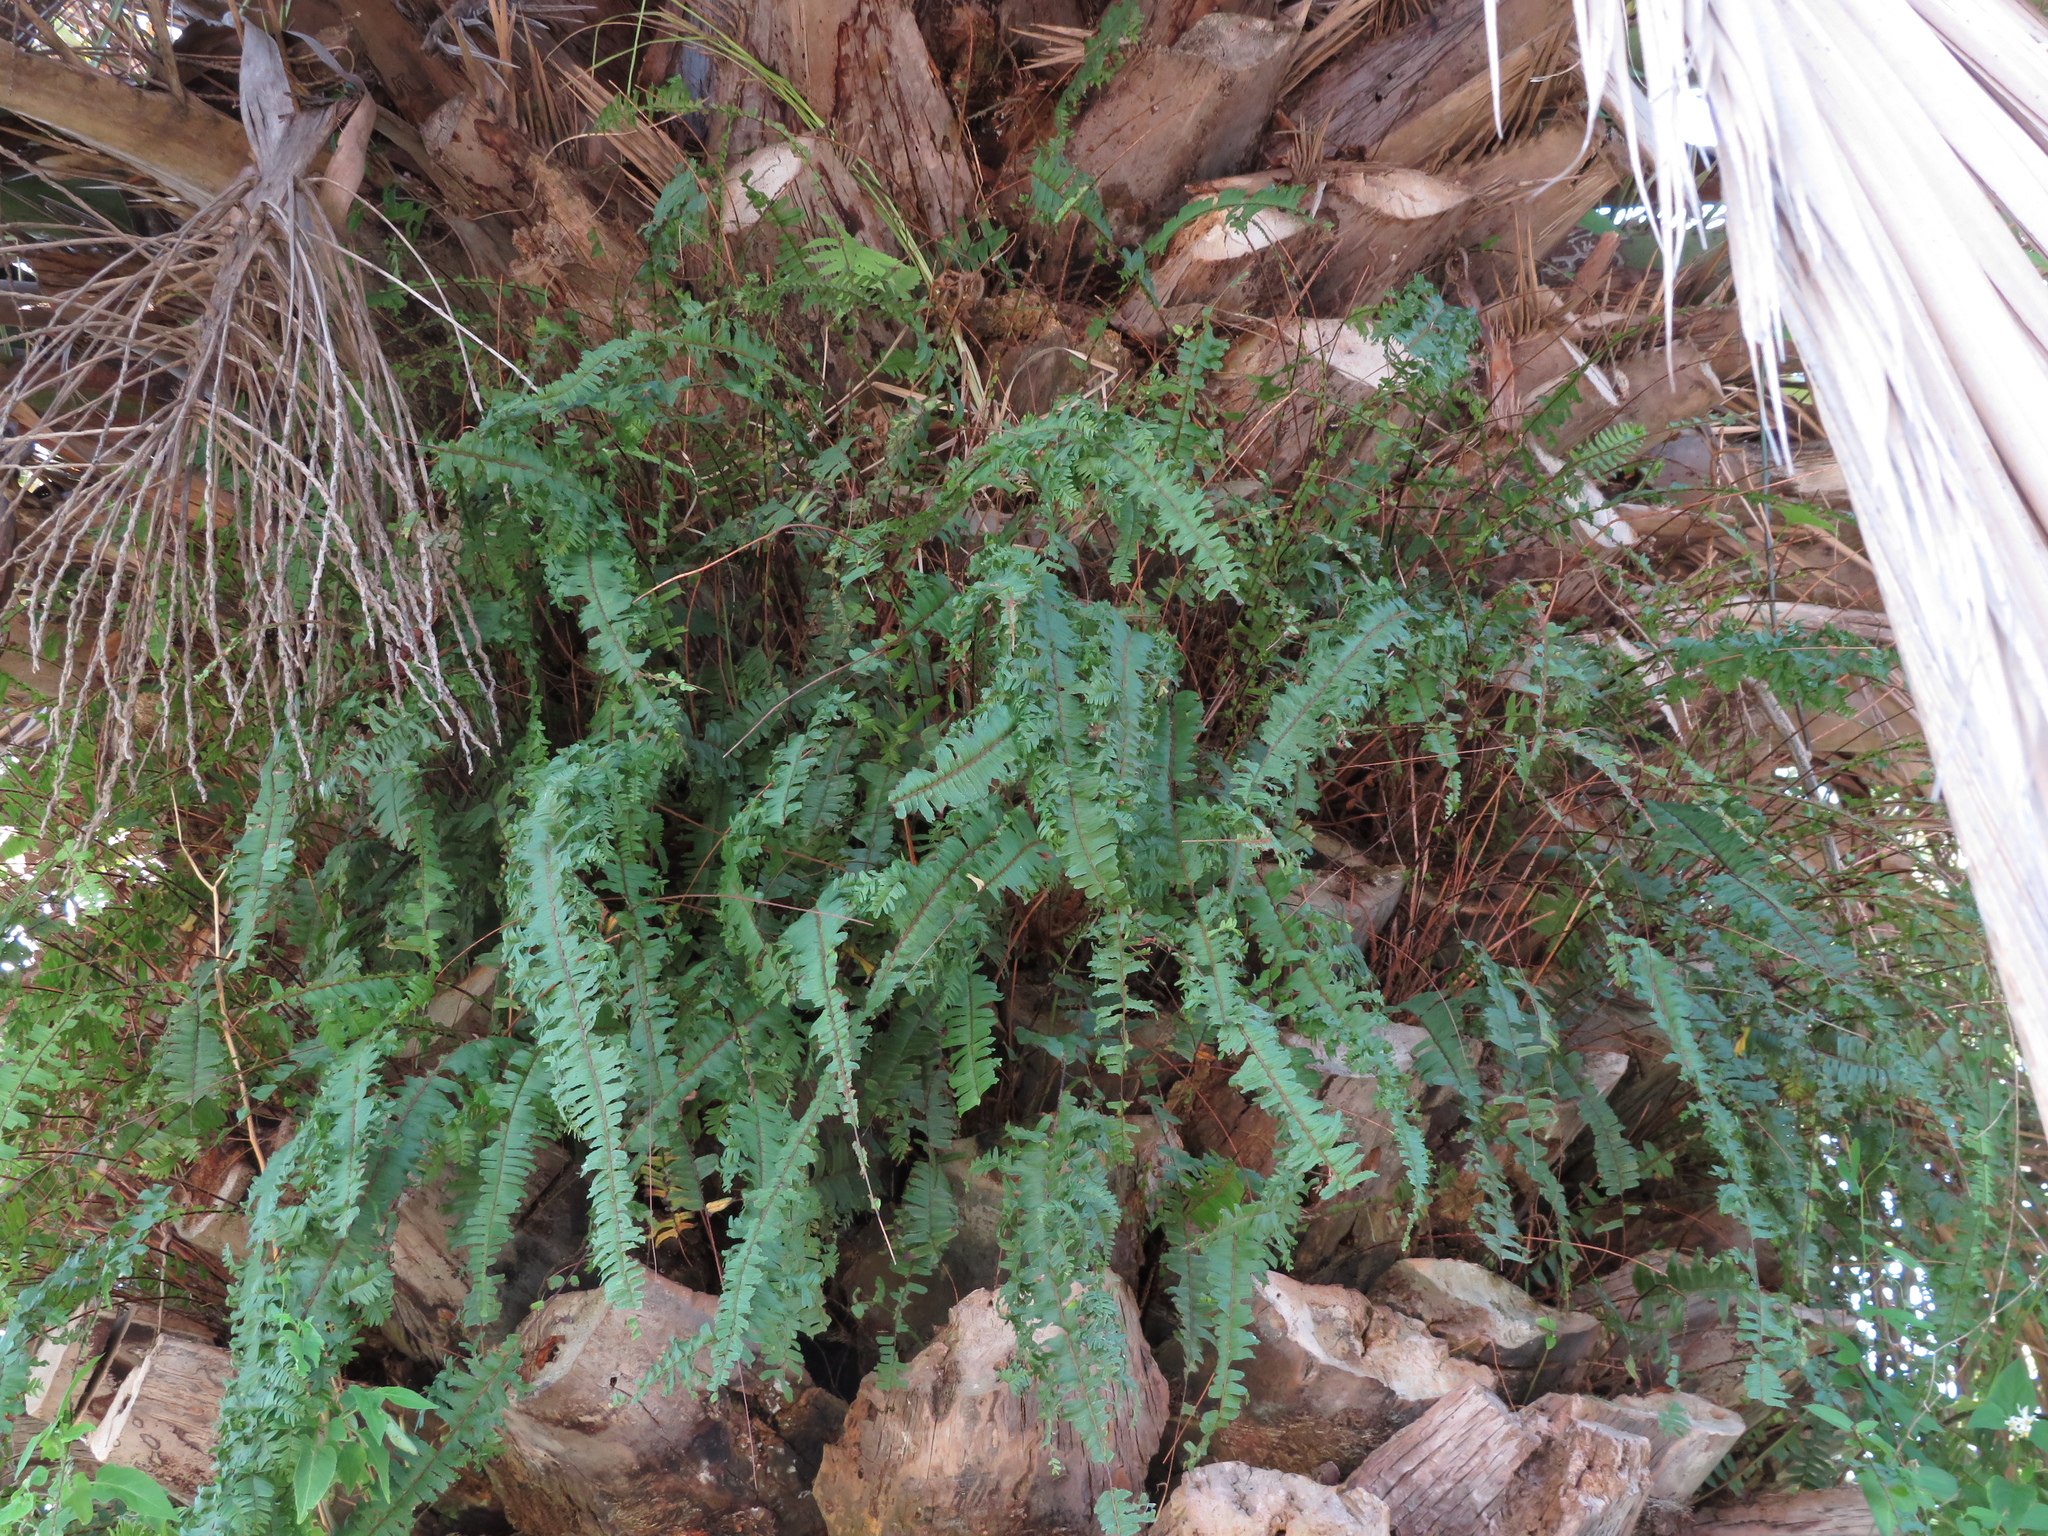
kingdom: Plantae
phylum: Tracheophyta
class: Polypodiopsida
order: Polypodiales
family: Nephrolepidaceae
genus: Nephrolepis
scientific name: Nephrolepis cordifolia
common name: Narrow swordfern
